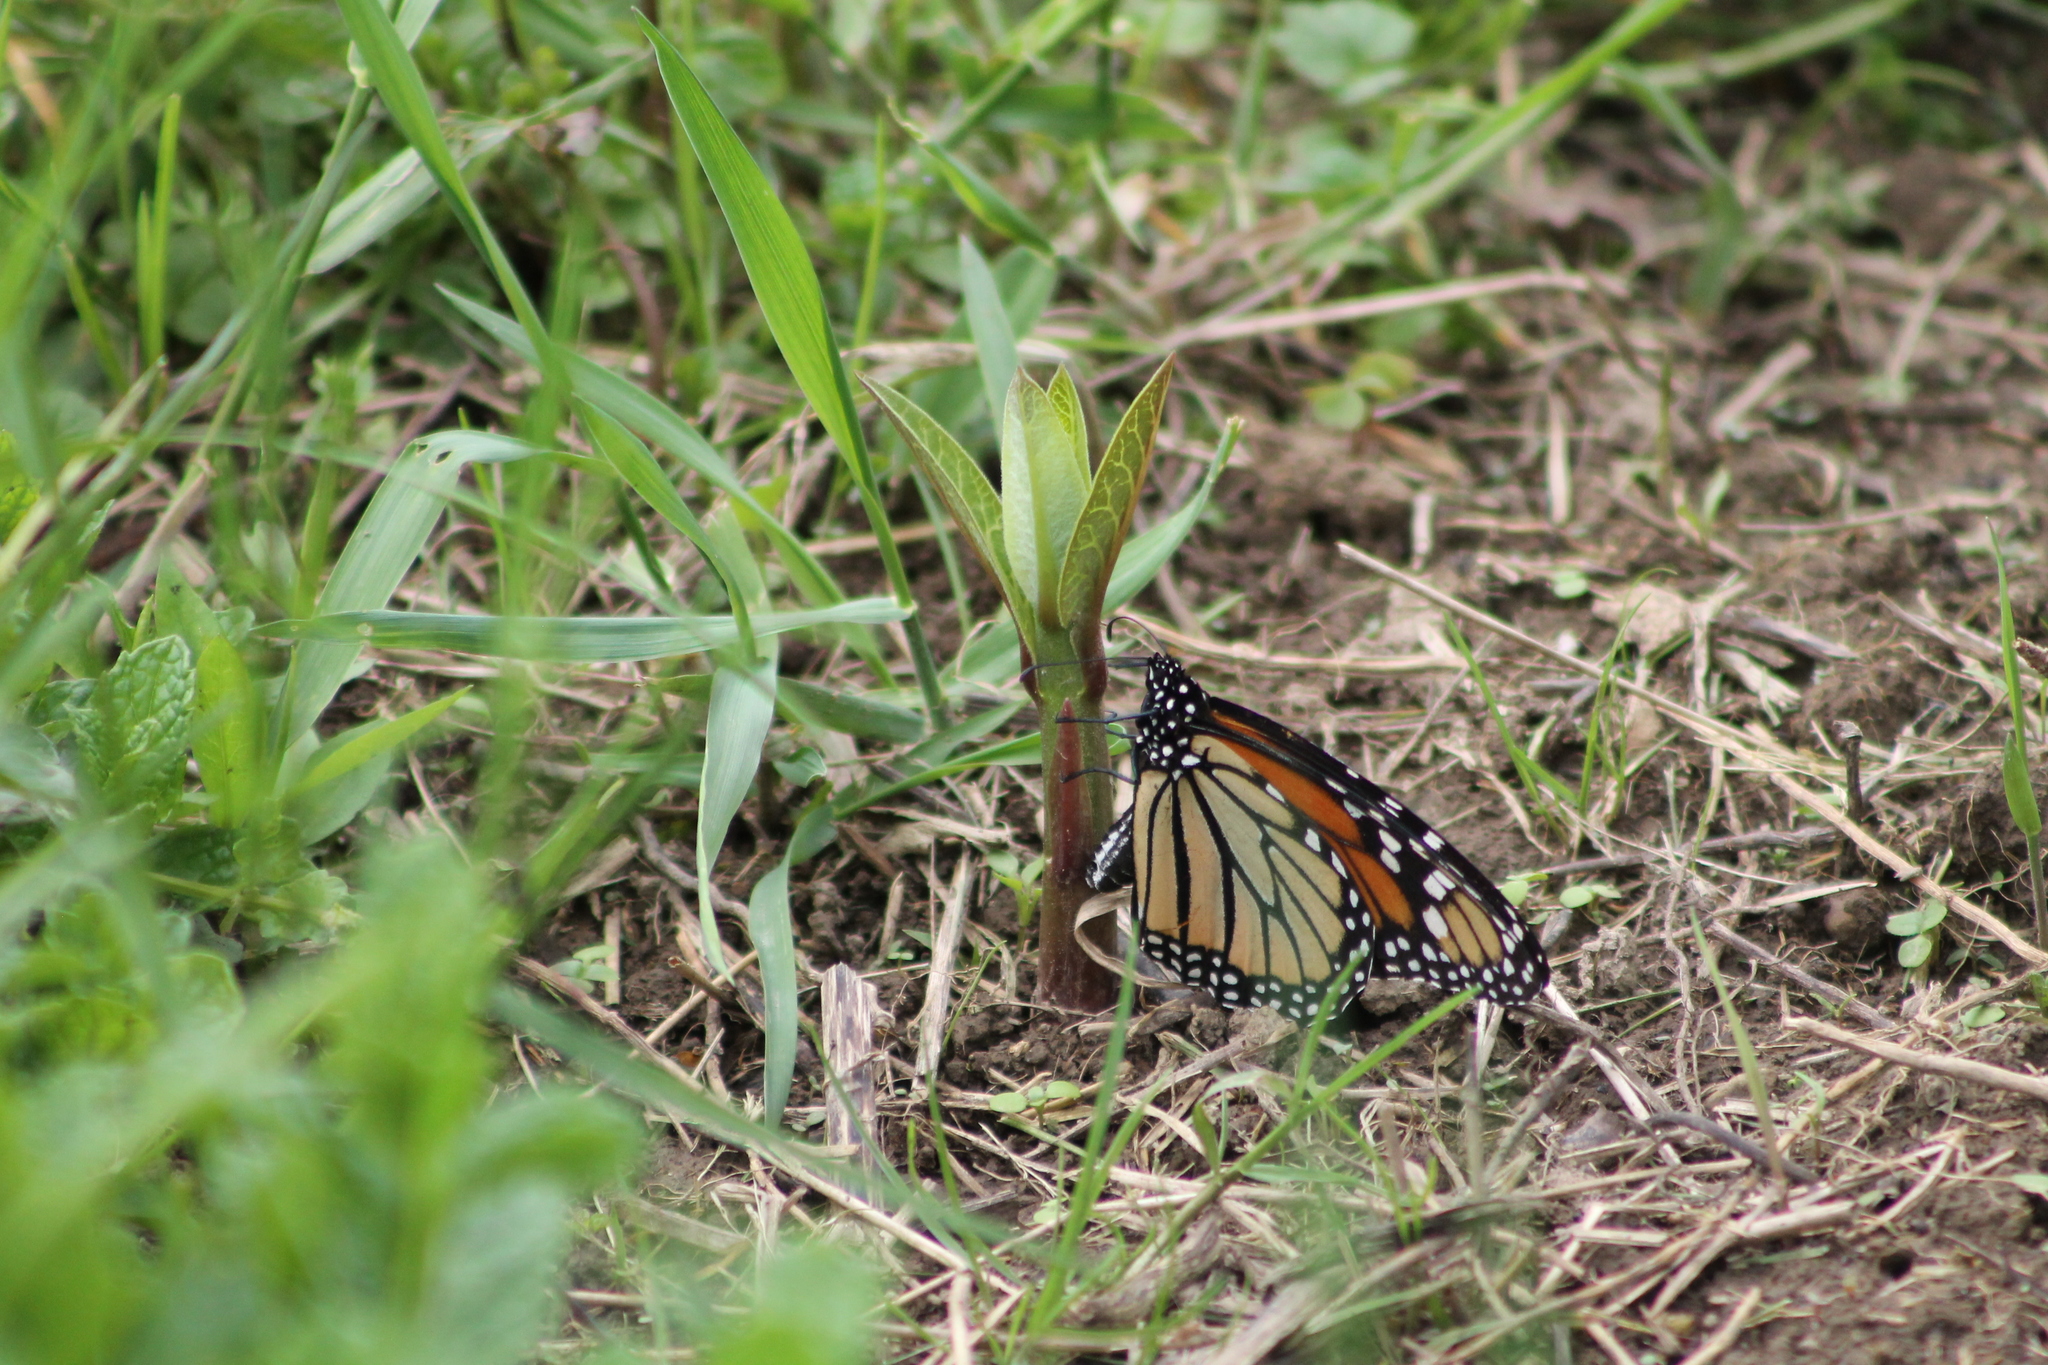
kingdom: Animalia
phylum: Arthropoda
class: Insecta
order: Lepidoptera
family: Nymphalidae
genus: Danaus
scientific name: Danaus plexippus
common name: Monarch
